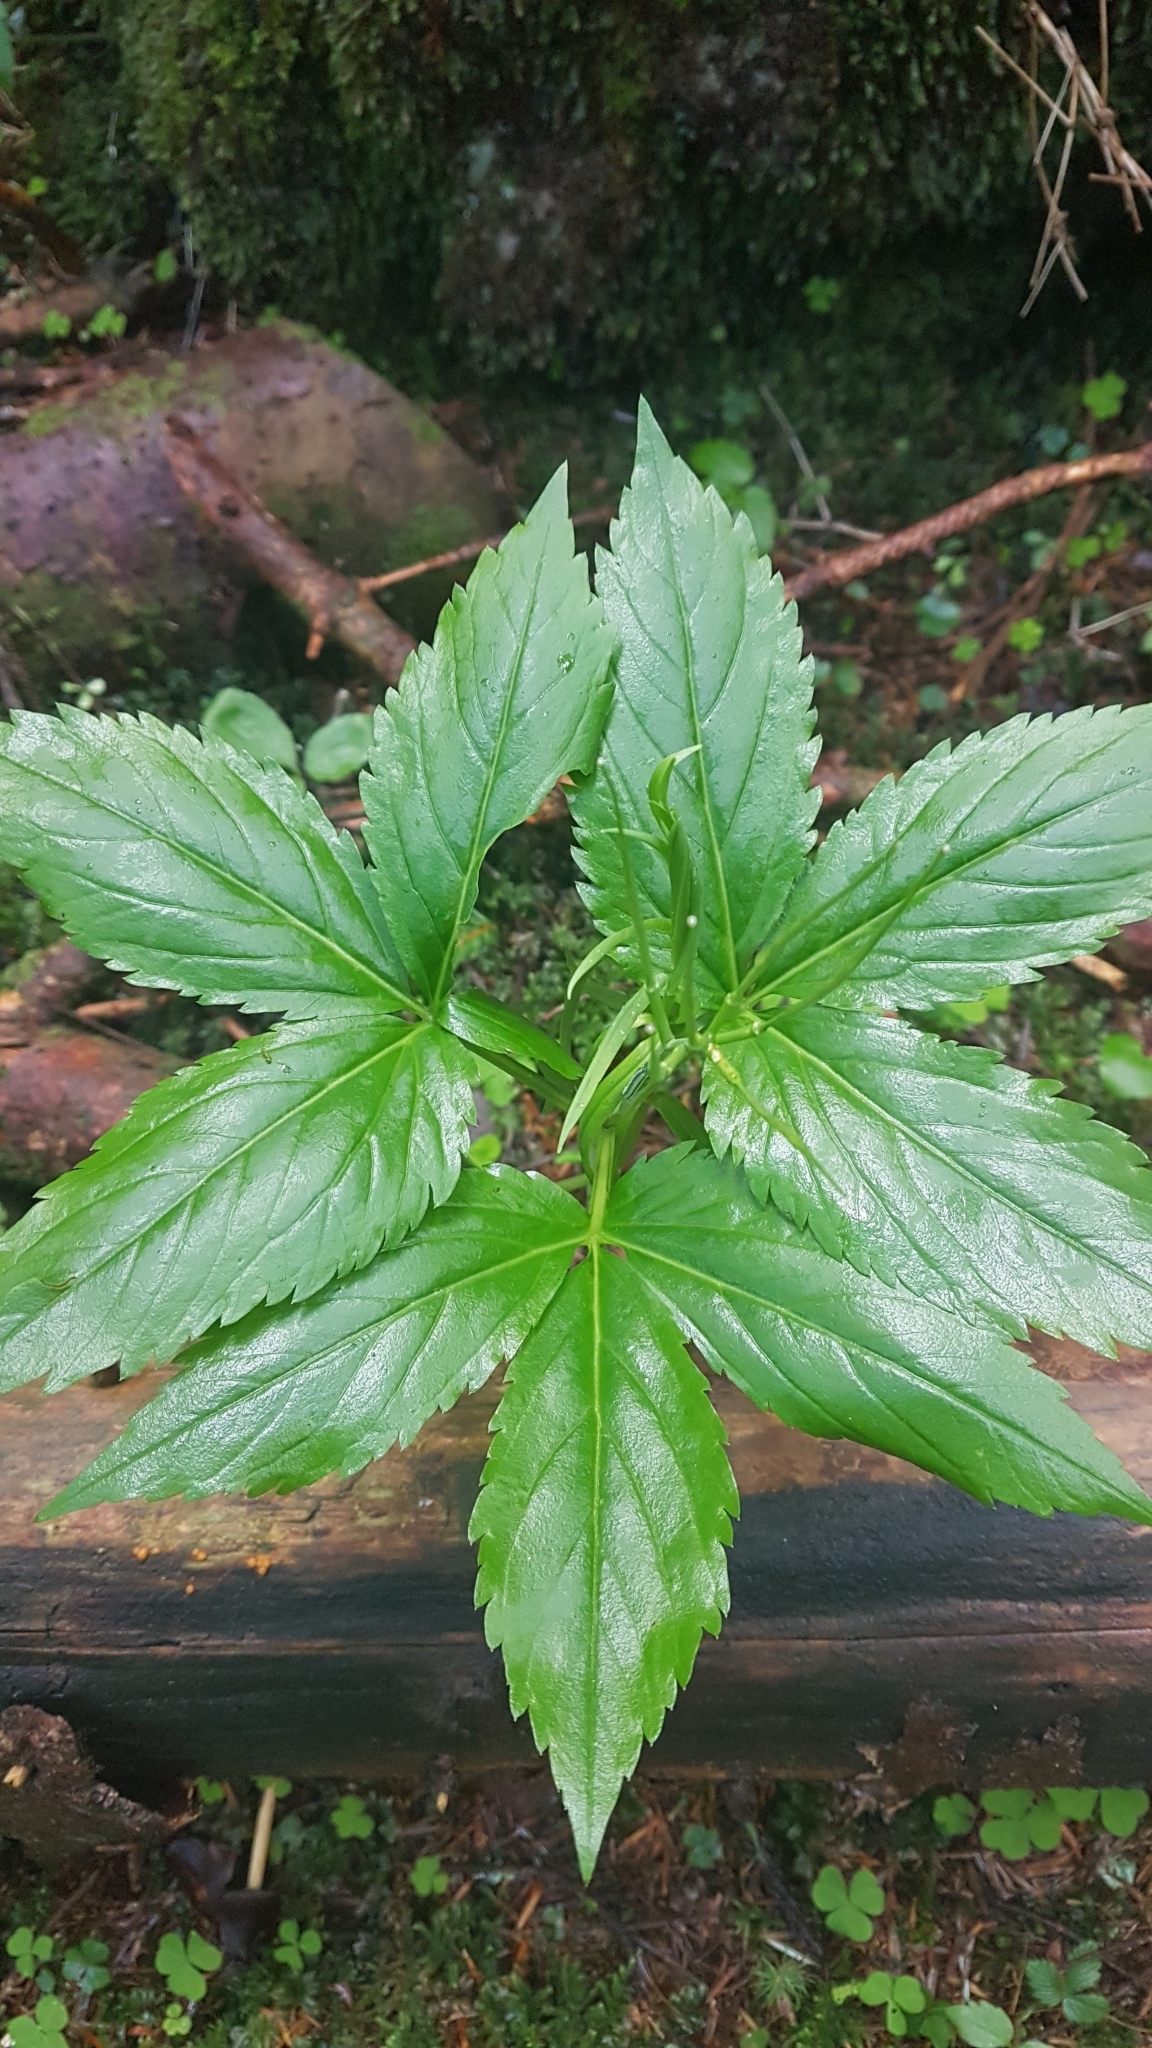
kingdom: Plantae
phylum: Tracheophyta
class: Magnoliopsida
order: Brassicales
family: Brassicaceae
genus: Cardamine
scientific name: Cardamine enneaphyllos
